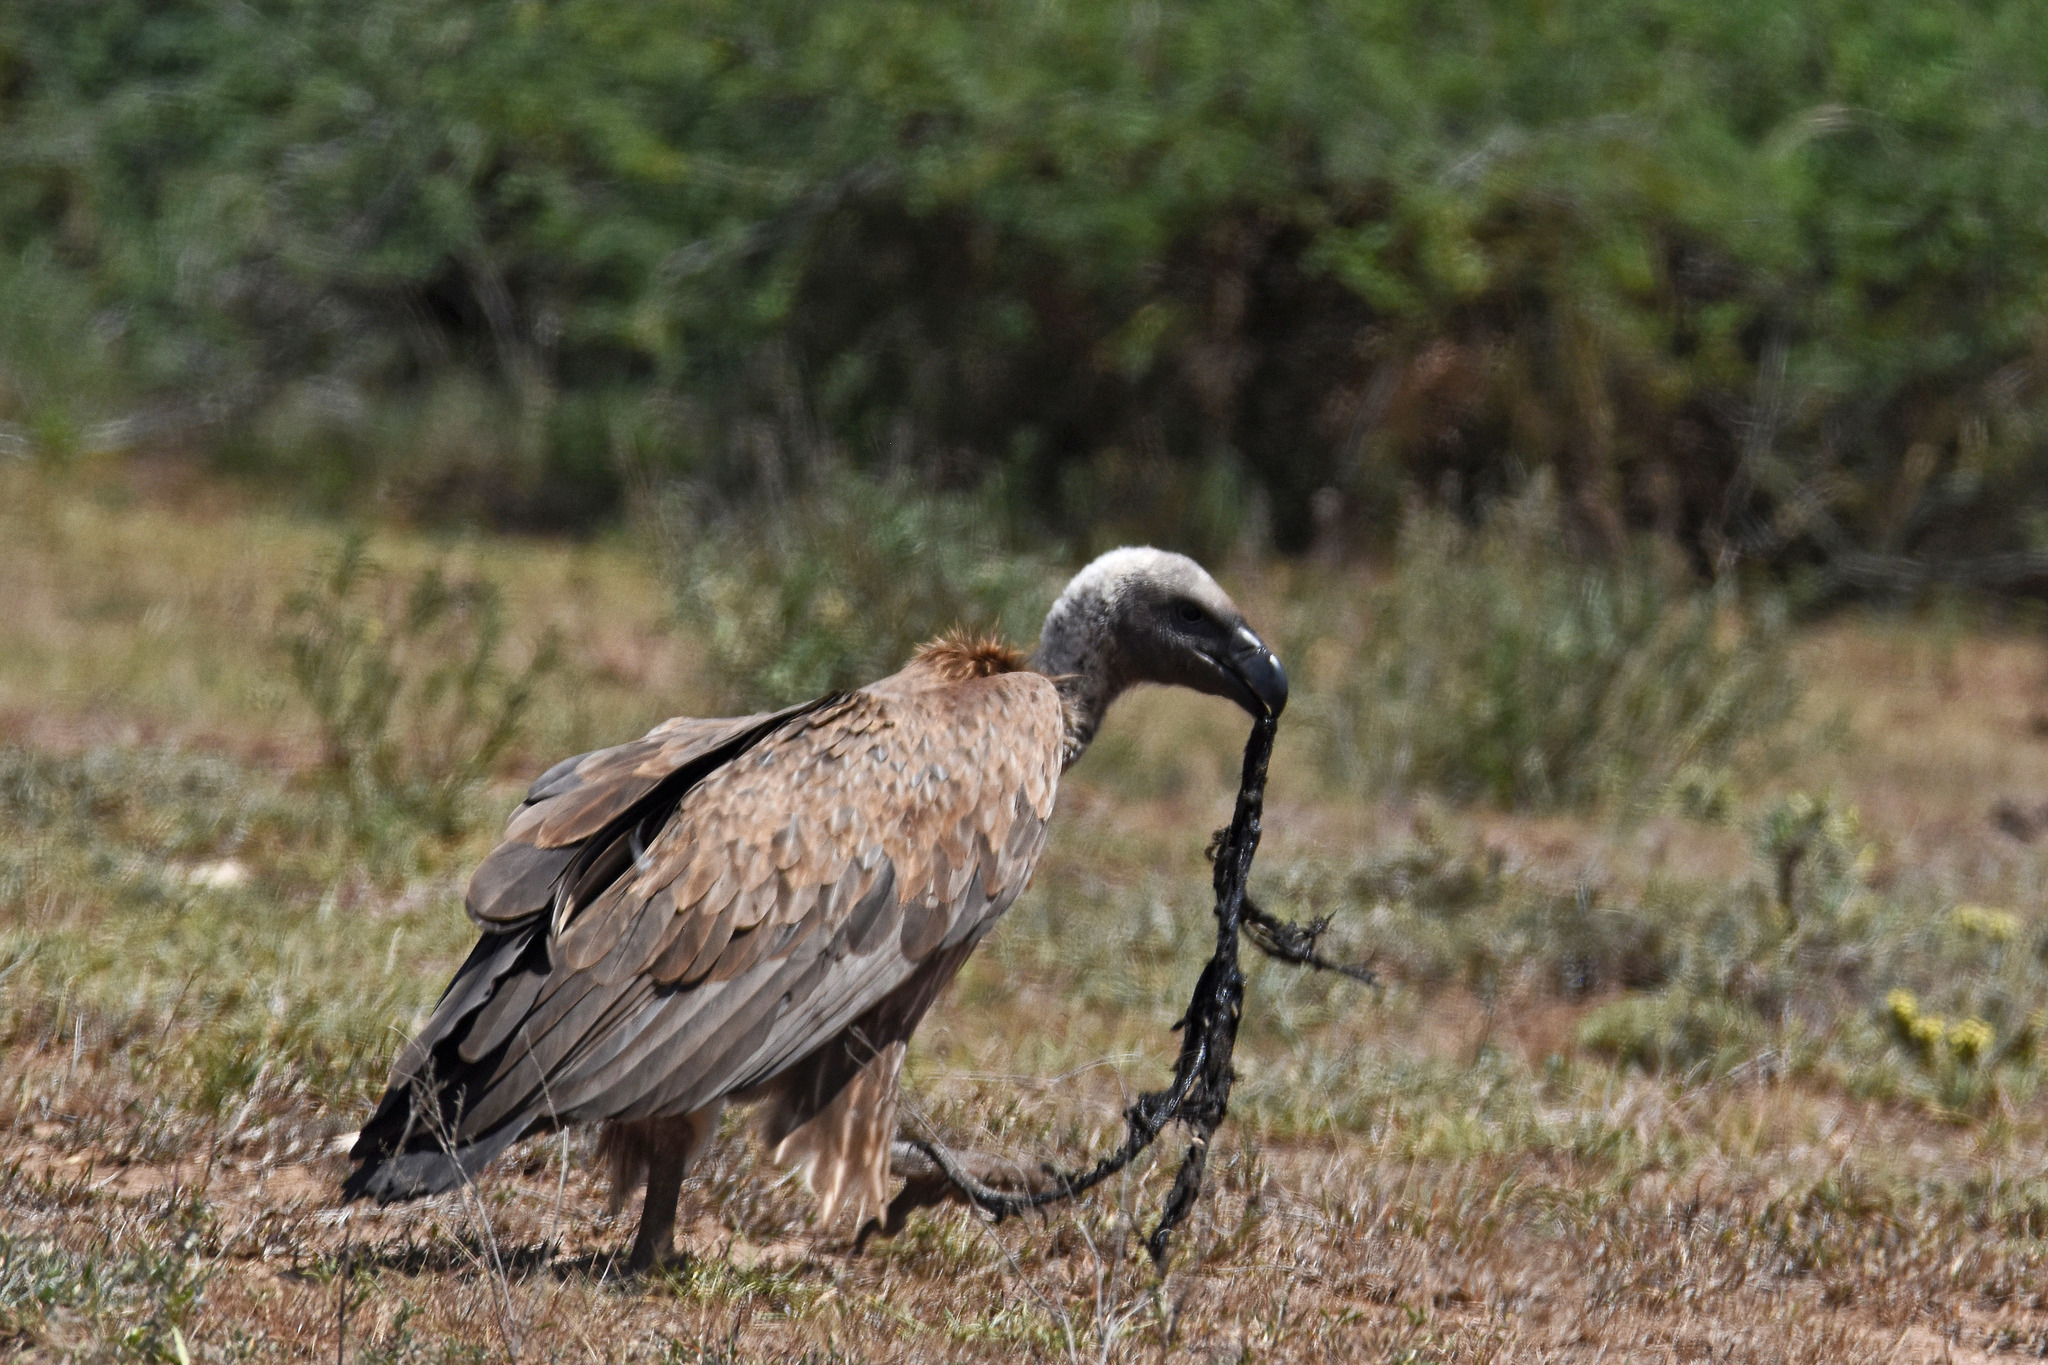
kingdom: Animalia
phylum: Chordata
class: Aves
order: Accipitriformes
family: Accipitridae
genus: Gyps
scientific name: Gyps africanus
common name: White-backed vulture
